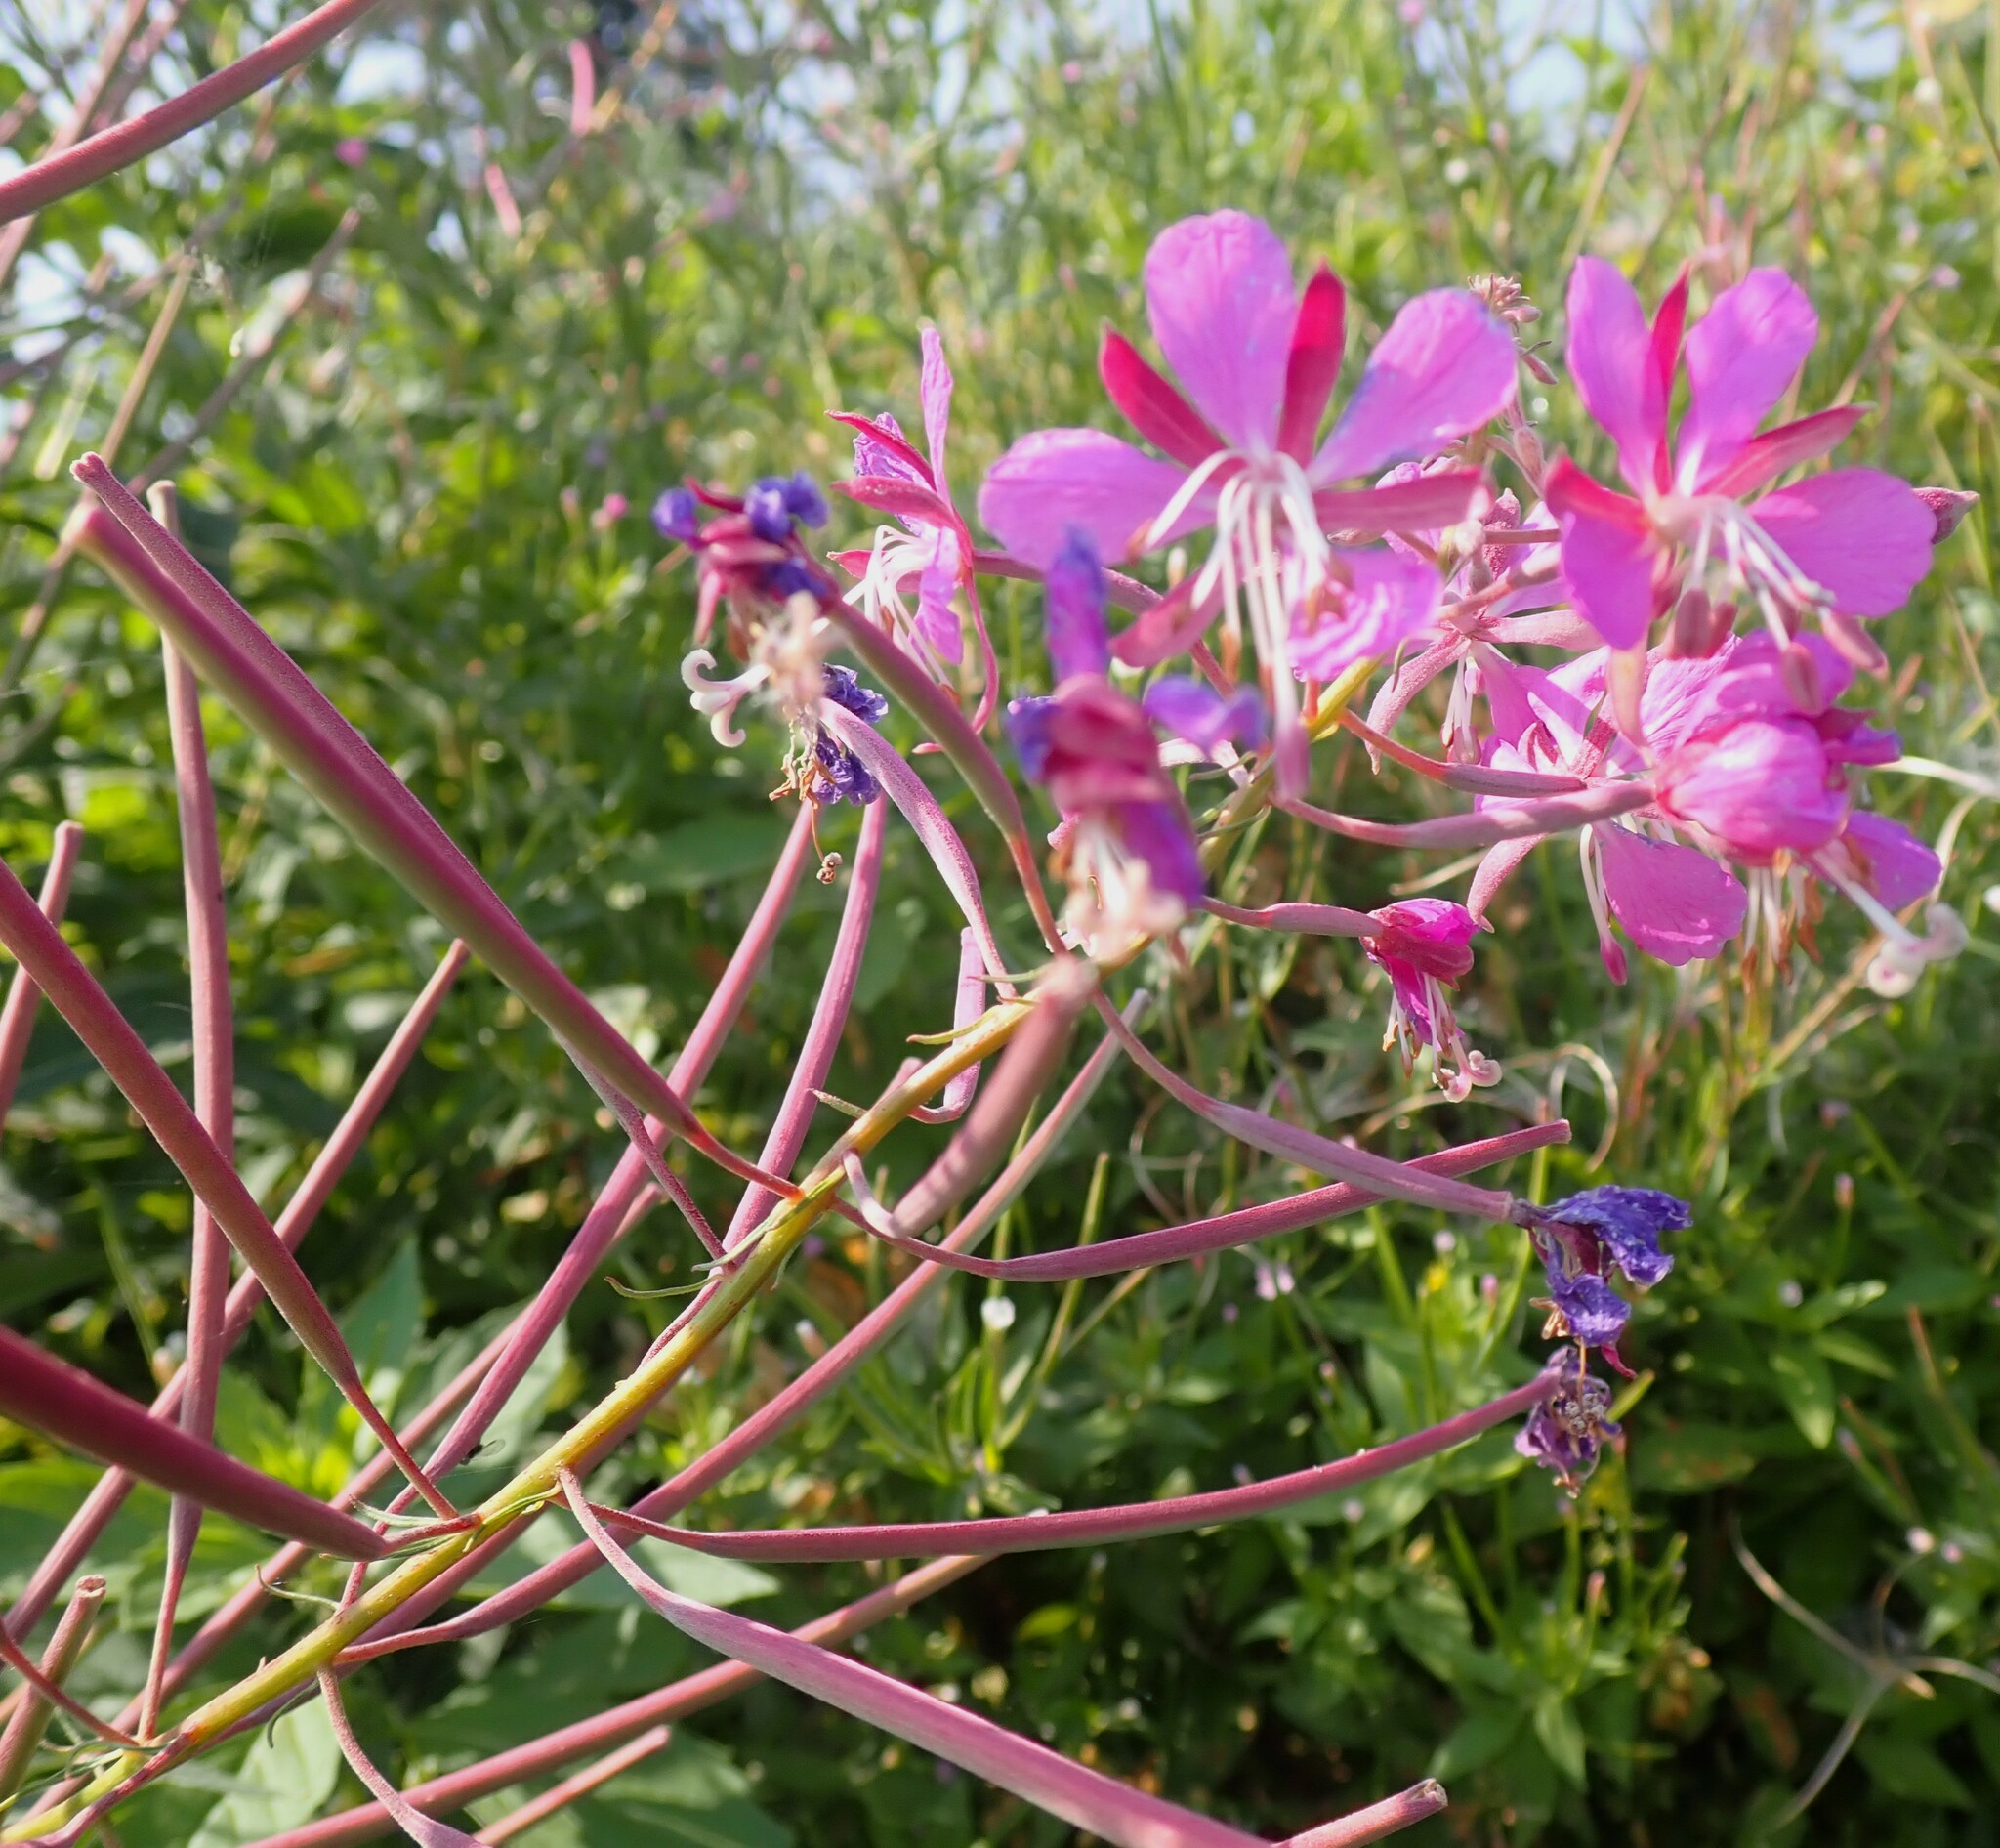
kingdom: Plantae
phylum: Tracheophyta
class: Magnoliopsida
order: Myrtales
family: Onagraceae
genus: Chamaenerion
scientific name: Chamaenerion angustifolium
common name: Fireweed
